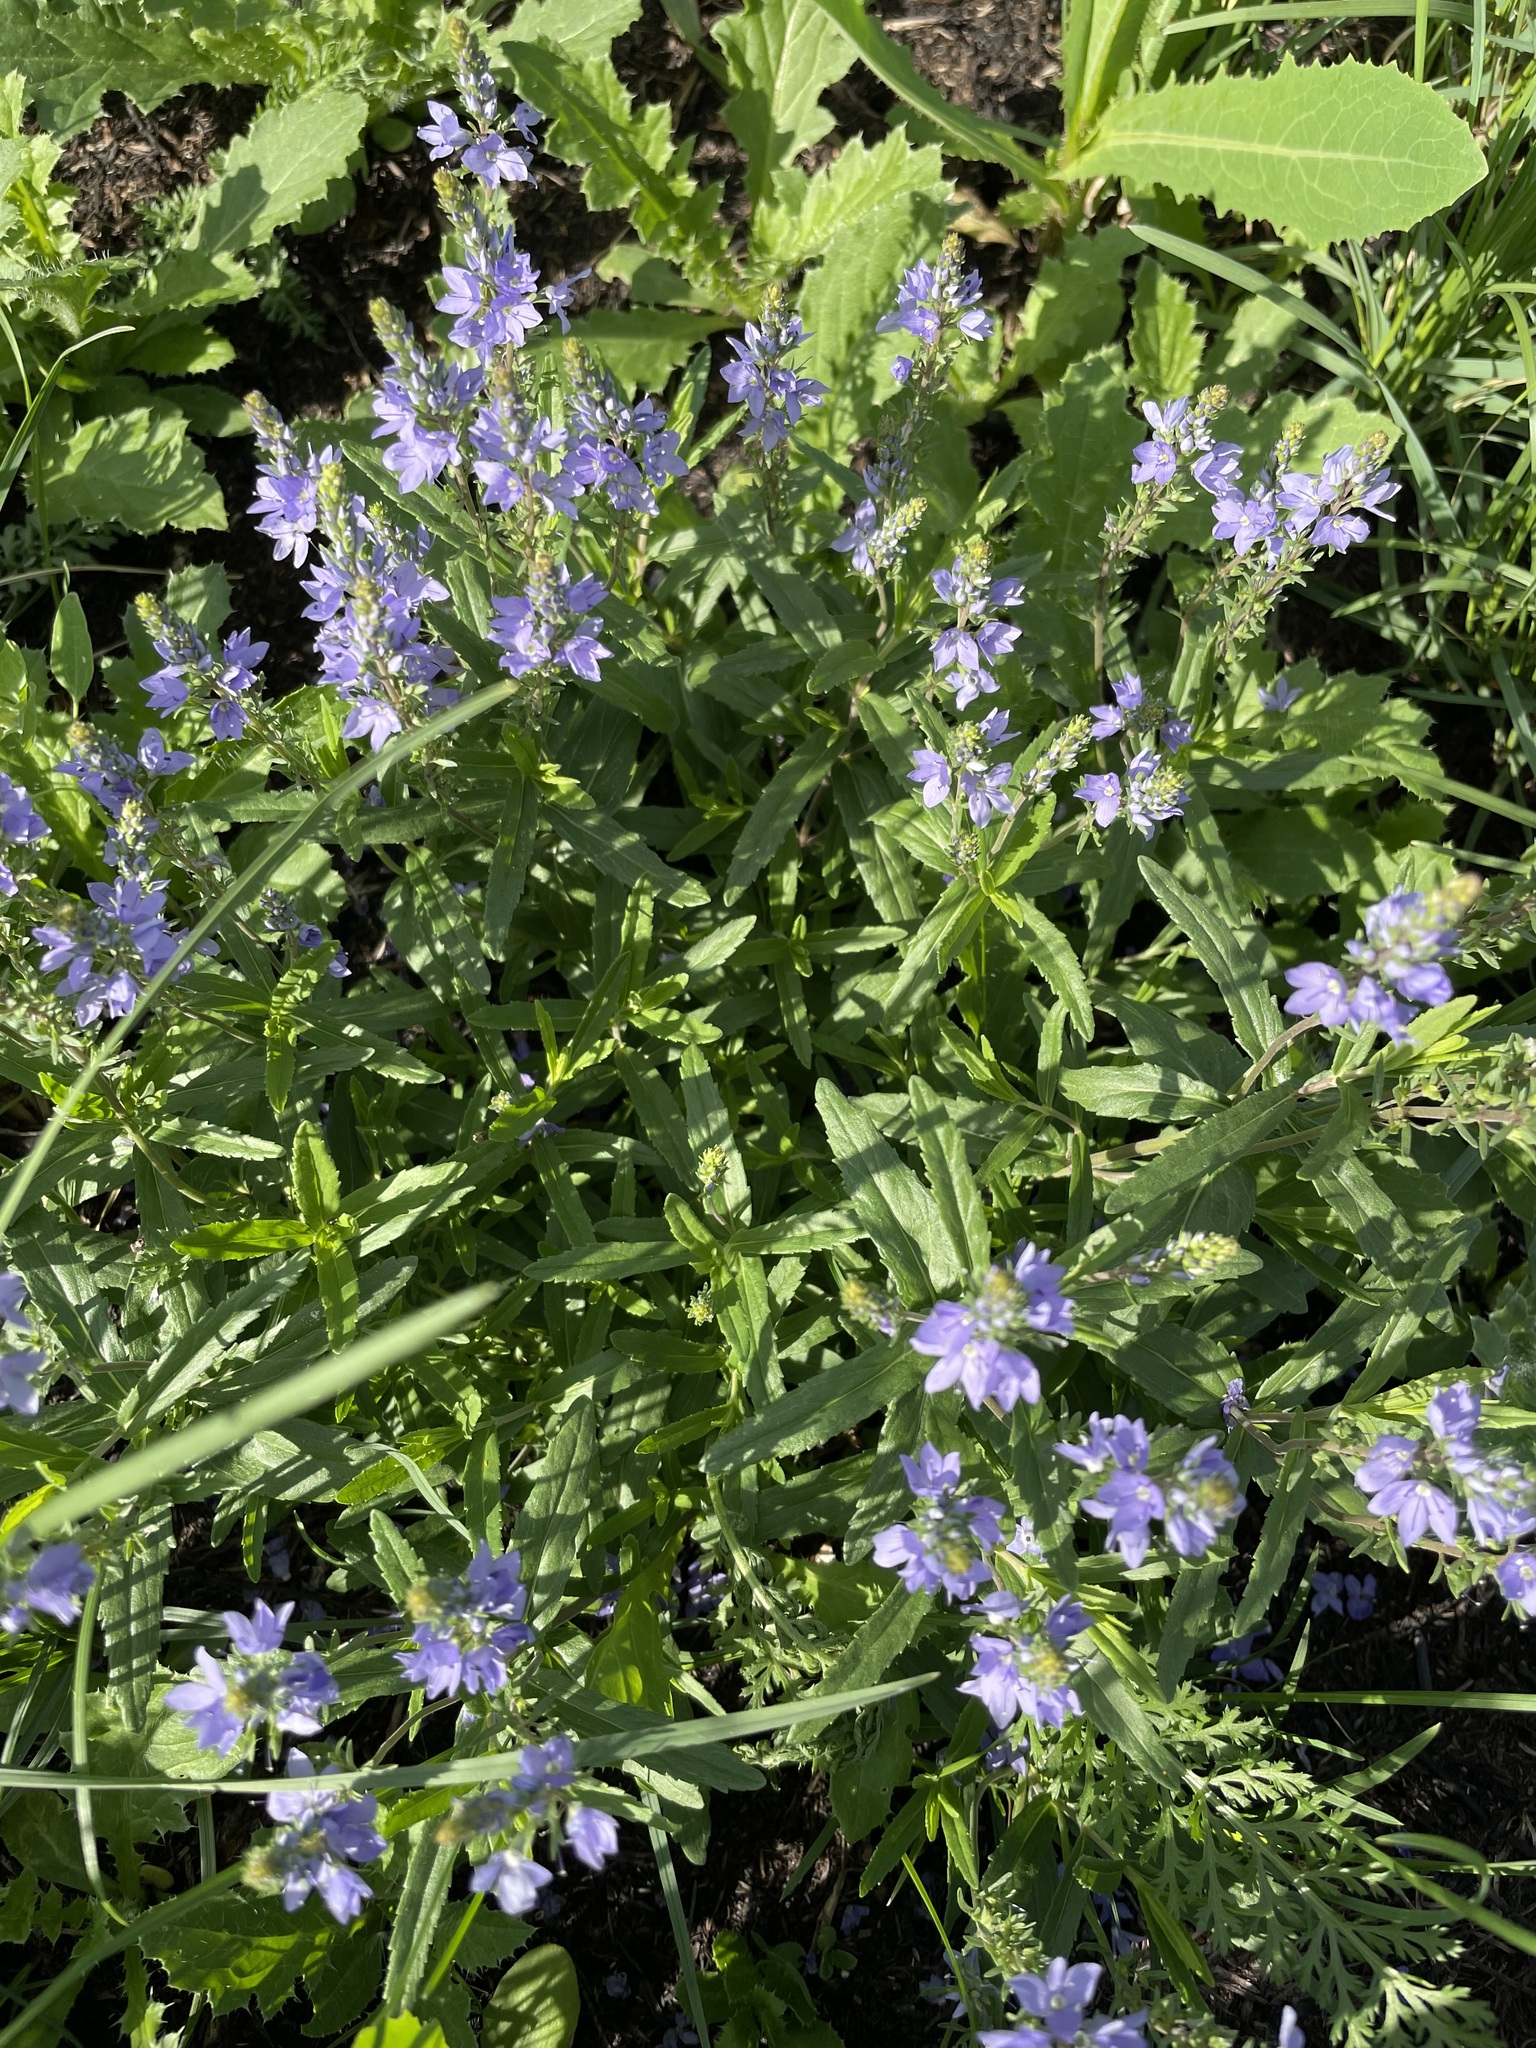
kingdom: Plantae
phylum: Tracheophyta
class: Magnoliopsida
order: Lamiales
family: Plantaginaceae
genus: Veronica
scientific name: Veronica prostrata
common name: Prostrate speedwell
